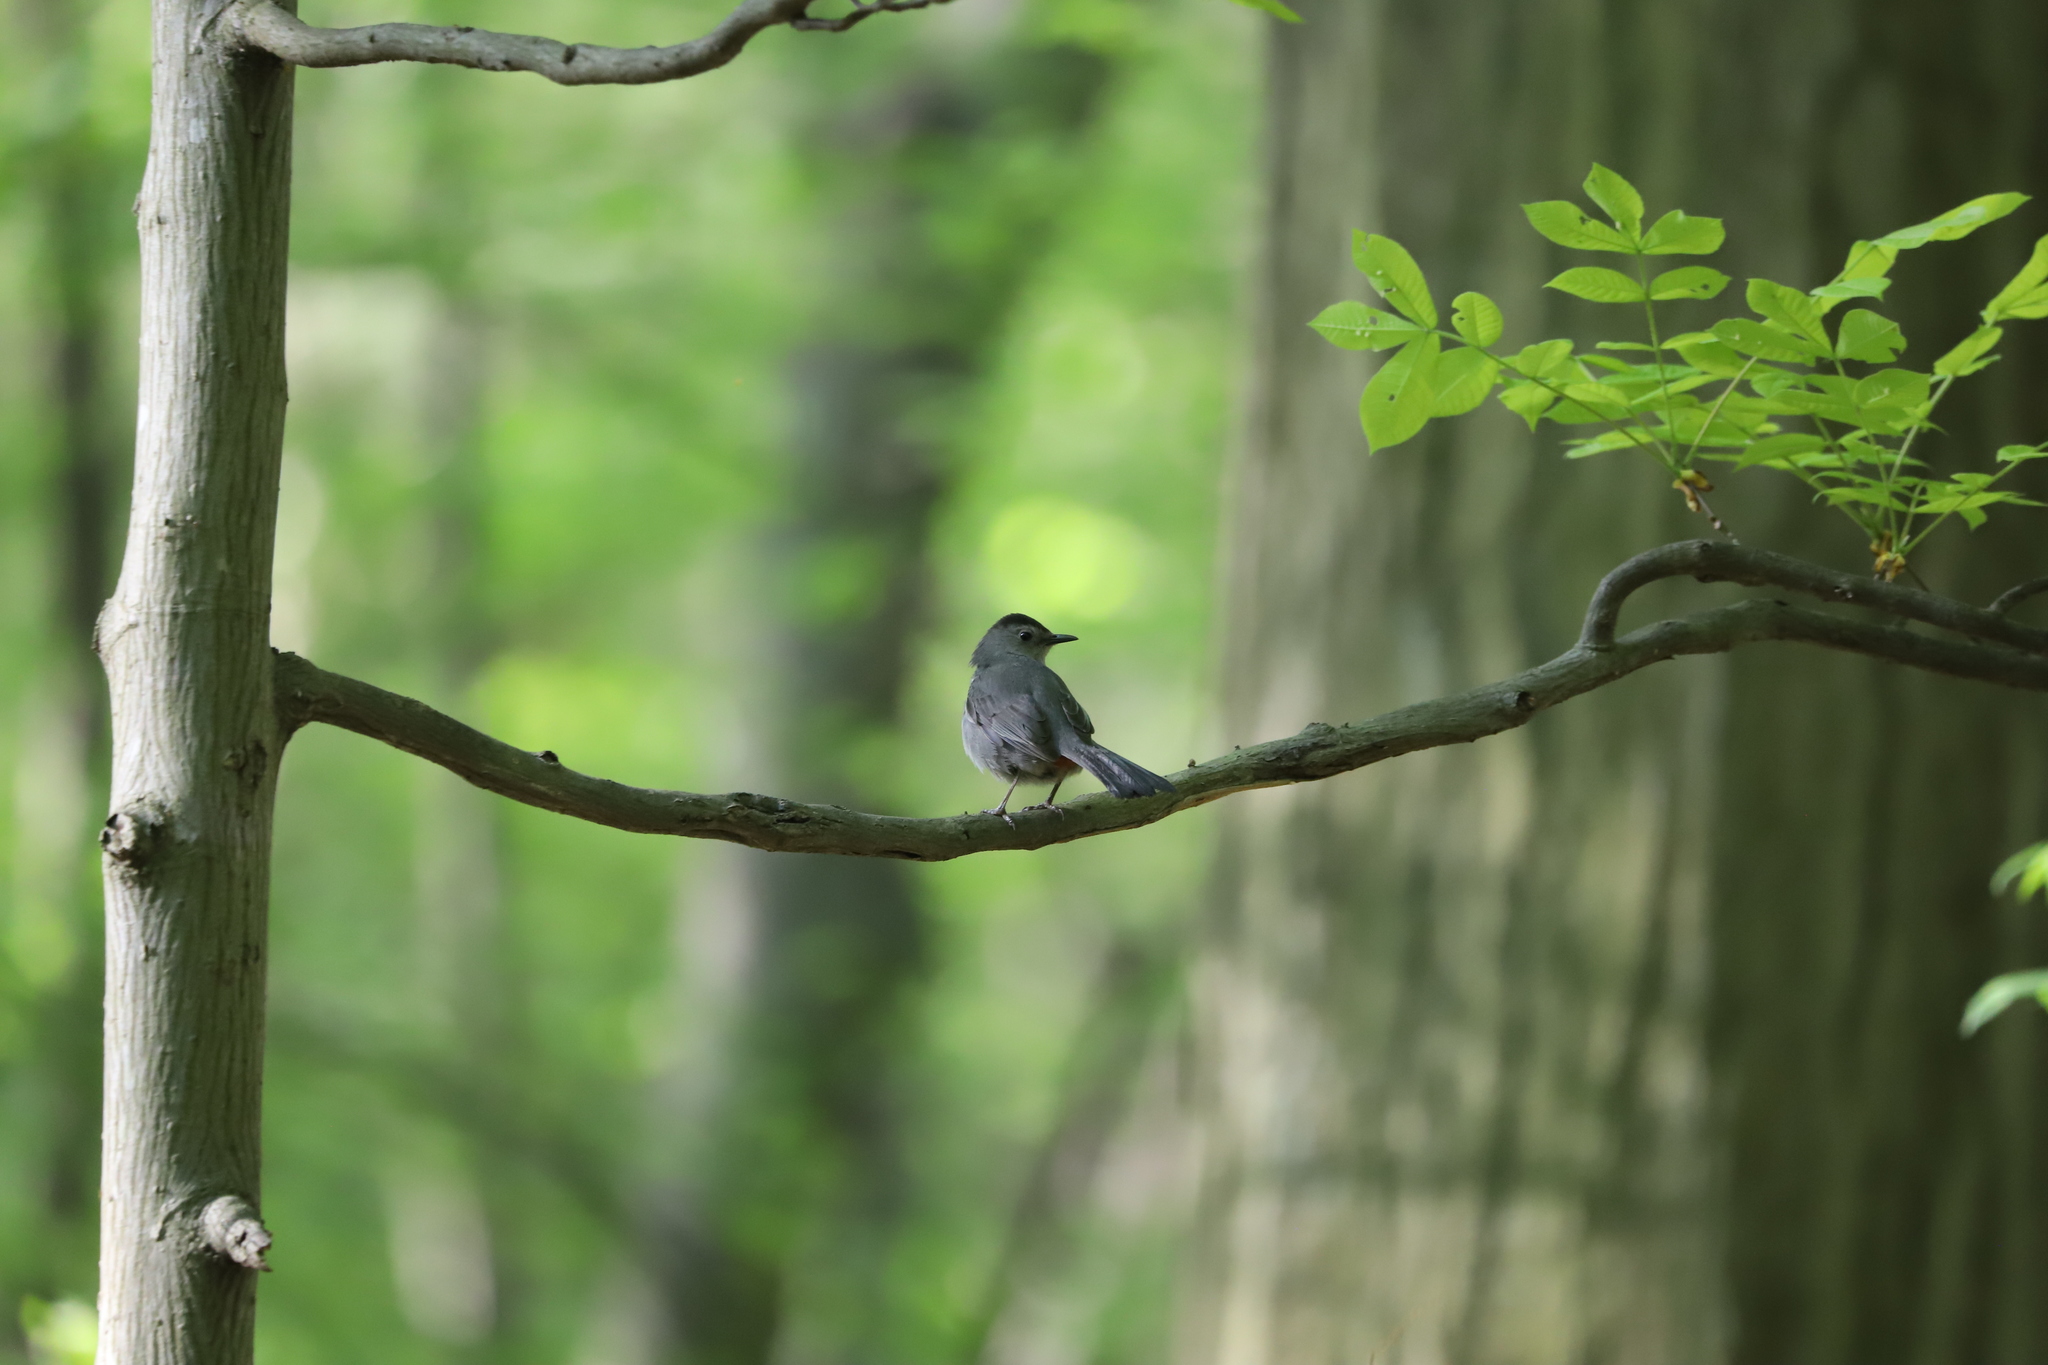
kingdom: Animalia
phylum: Chordata
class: Aves
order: Passeriformes
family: Mimidae
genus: Dumetella
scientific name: Dumetella carolinensis
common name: Gray catbird
